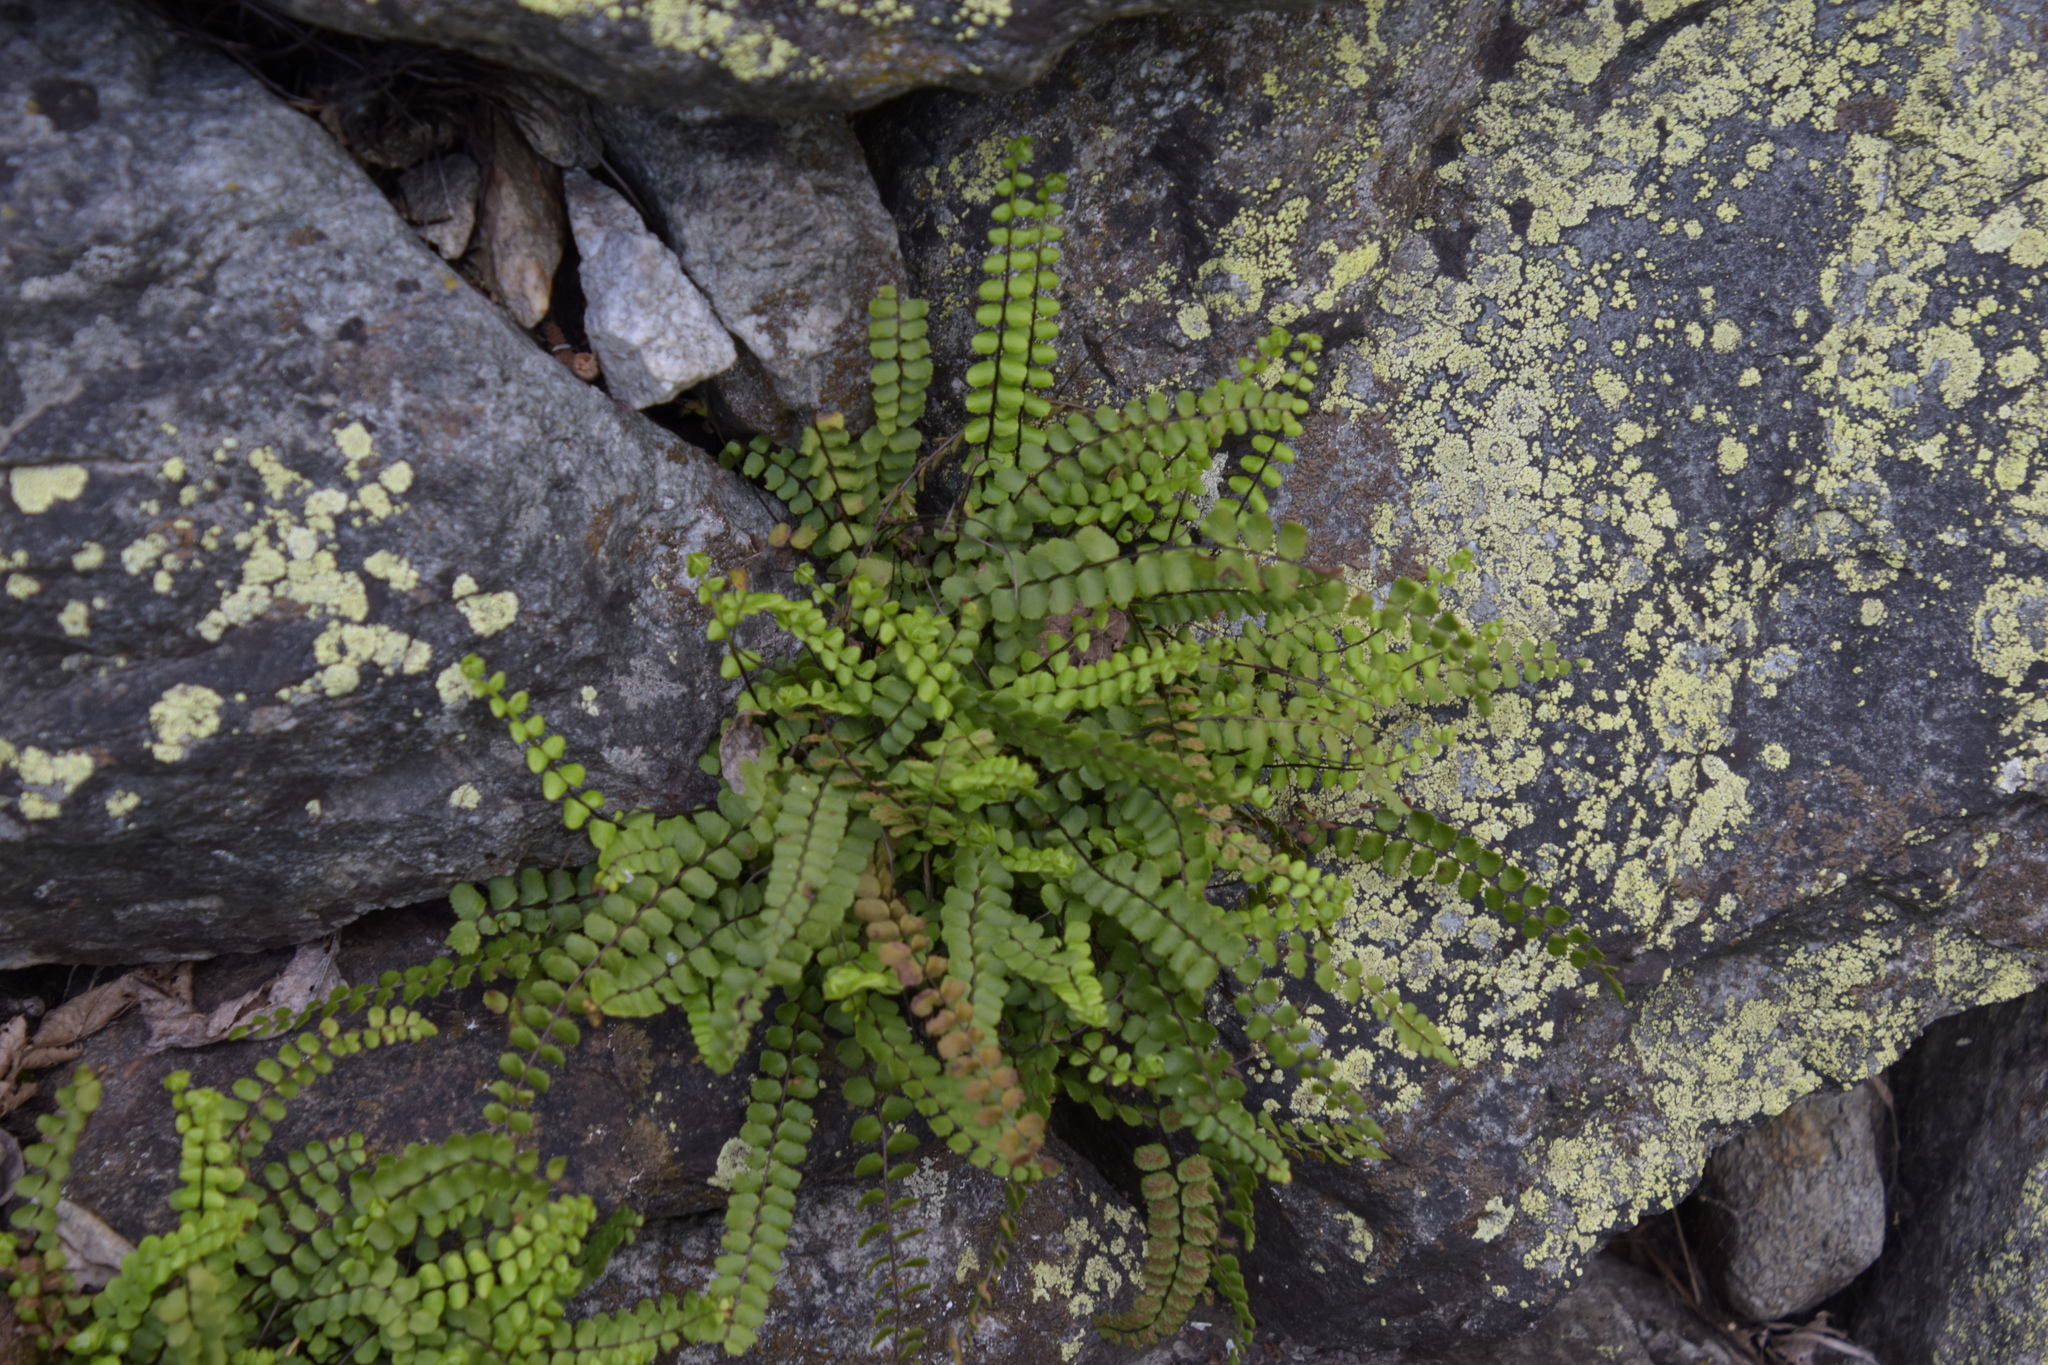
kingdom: Plantae
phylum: Tracheophyta
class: Polypodiopsida
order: Polypodiales
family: Aspleniaceae
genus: Asplenium
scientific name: Asplenium trichomanes
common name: Maidenhair spleenwort
